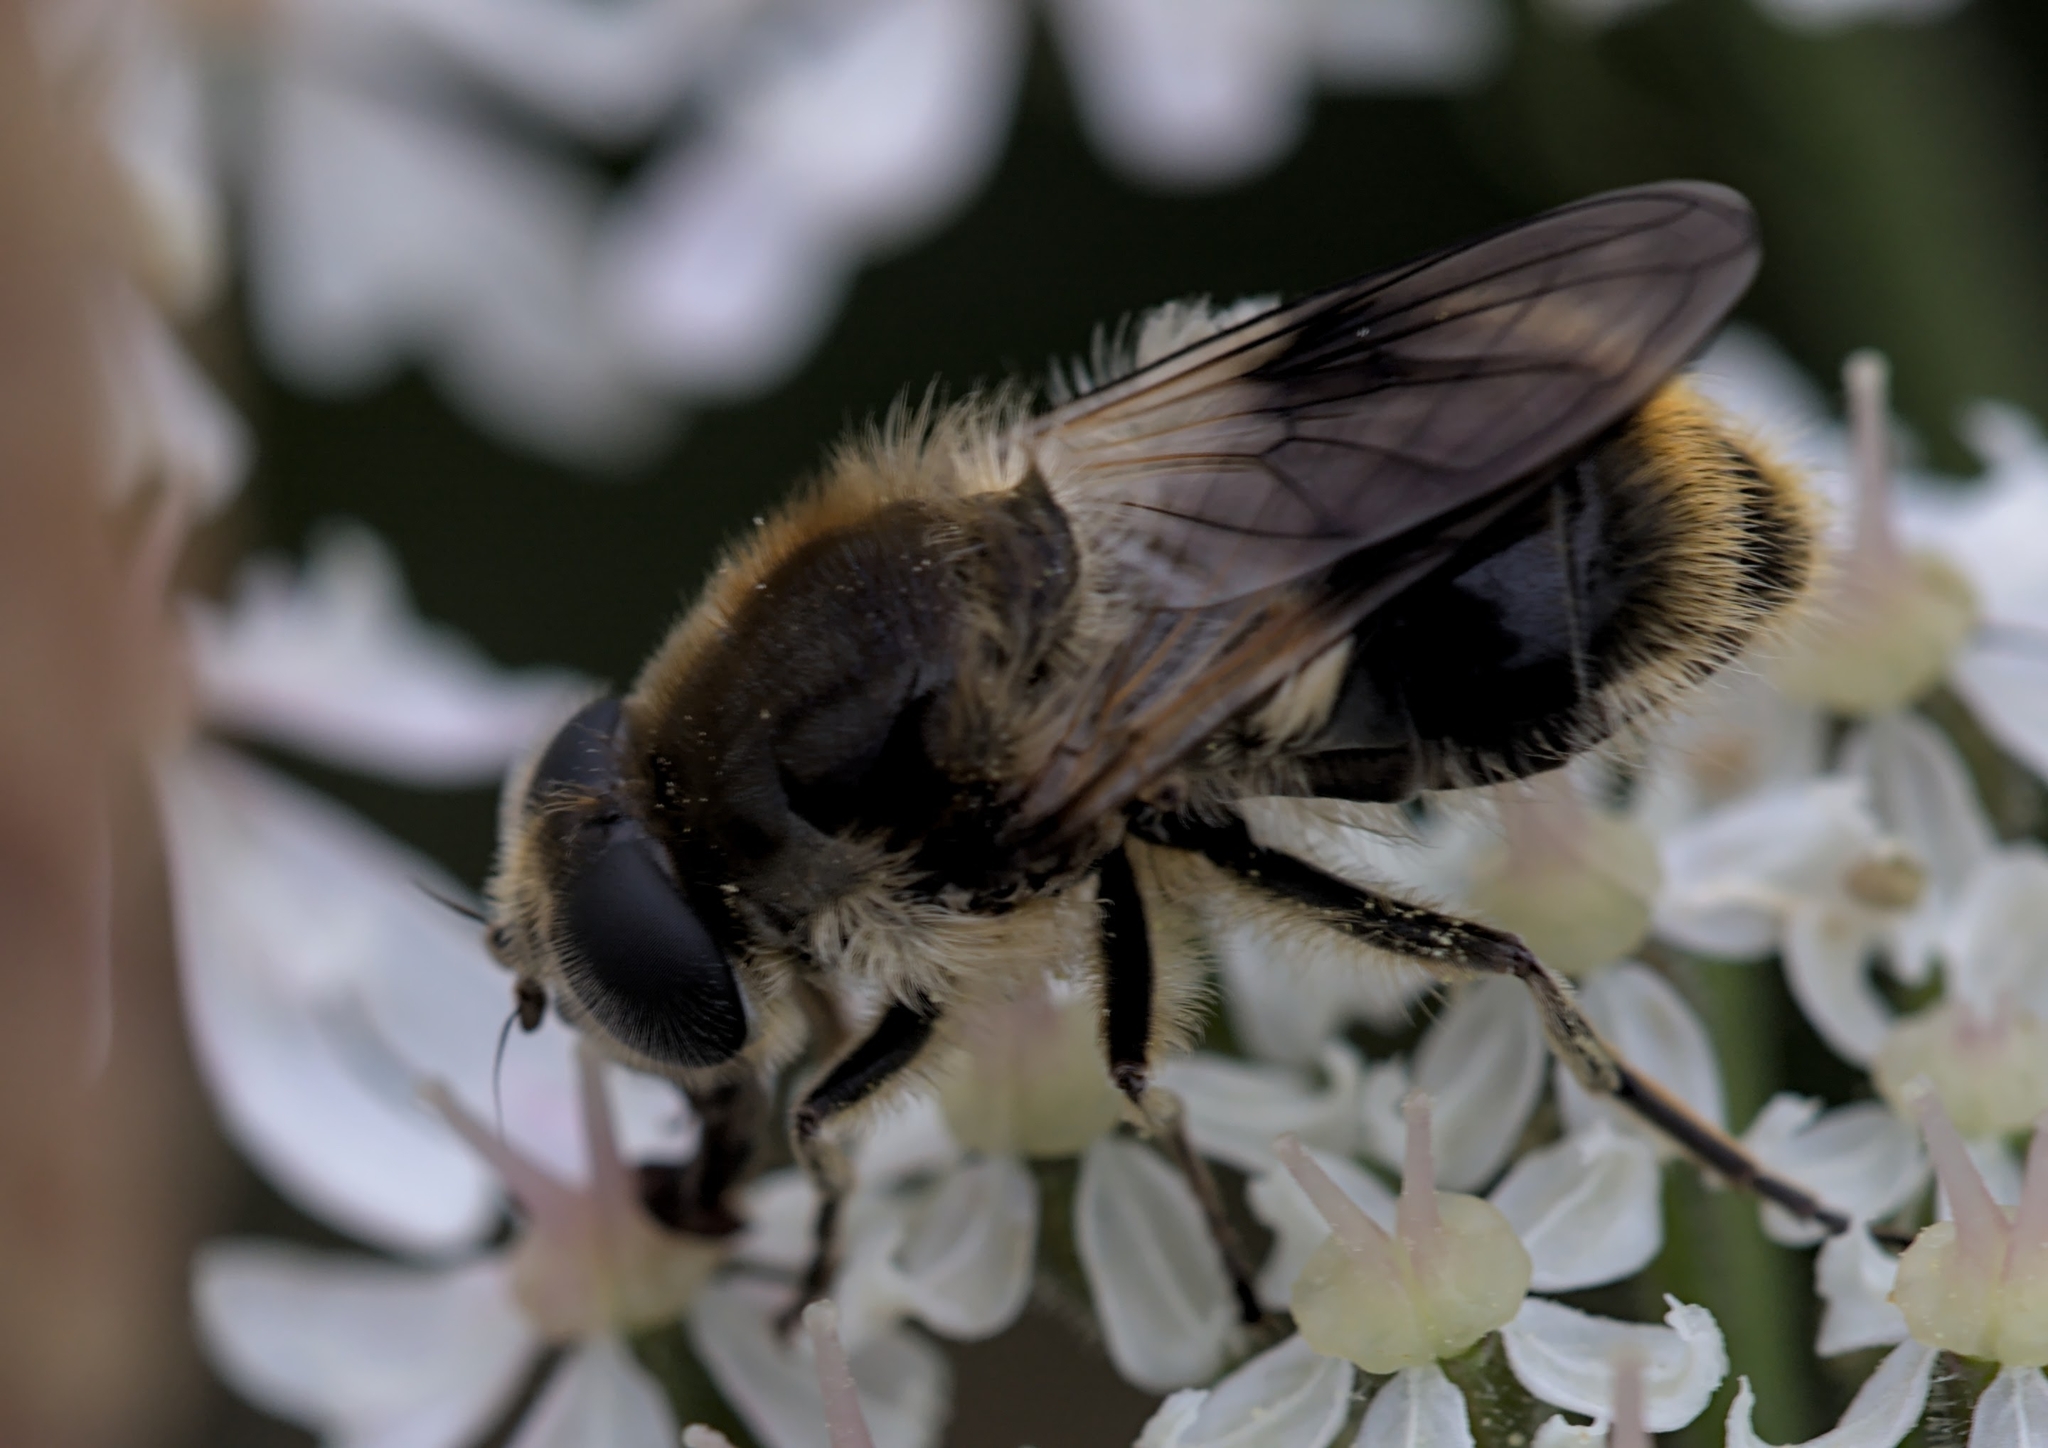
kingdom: Animalia
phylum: Arthropoda
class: Insecta
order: Diptera
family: Syrphidae
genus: Cheilosia
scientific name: Cheilosia illustrata
